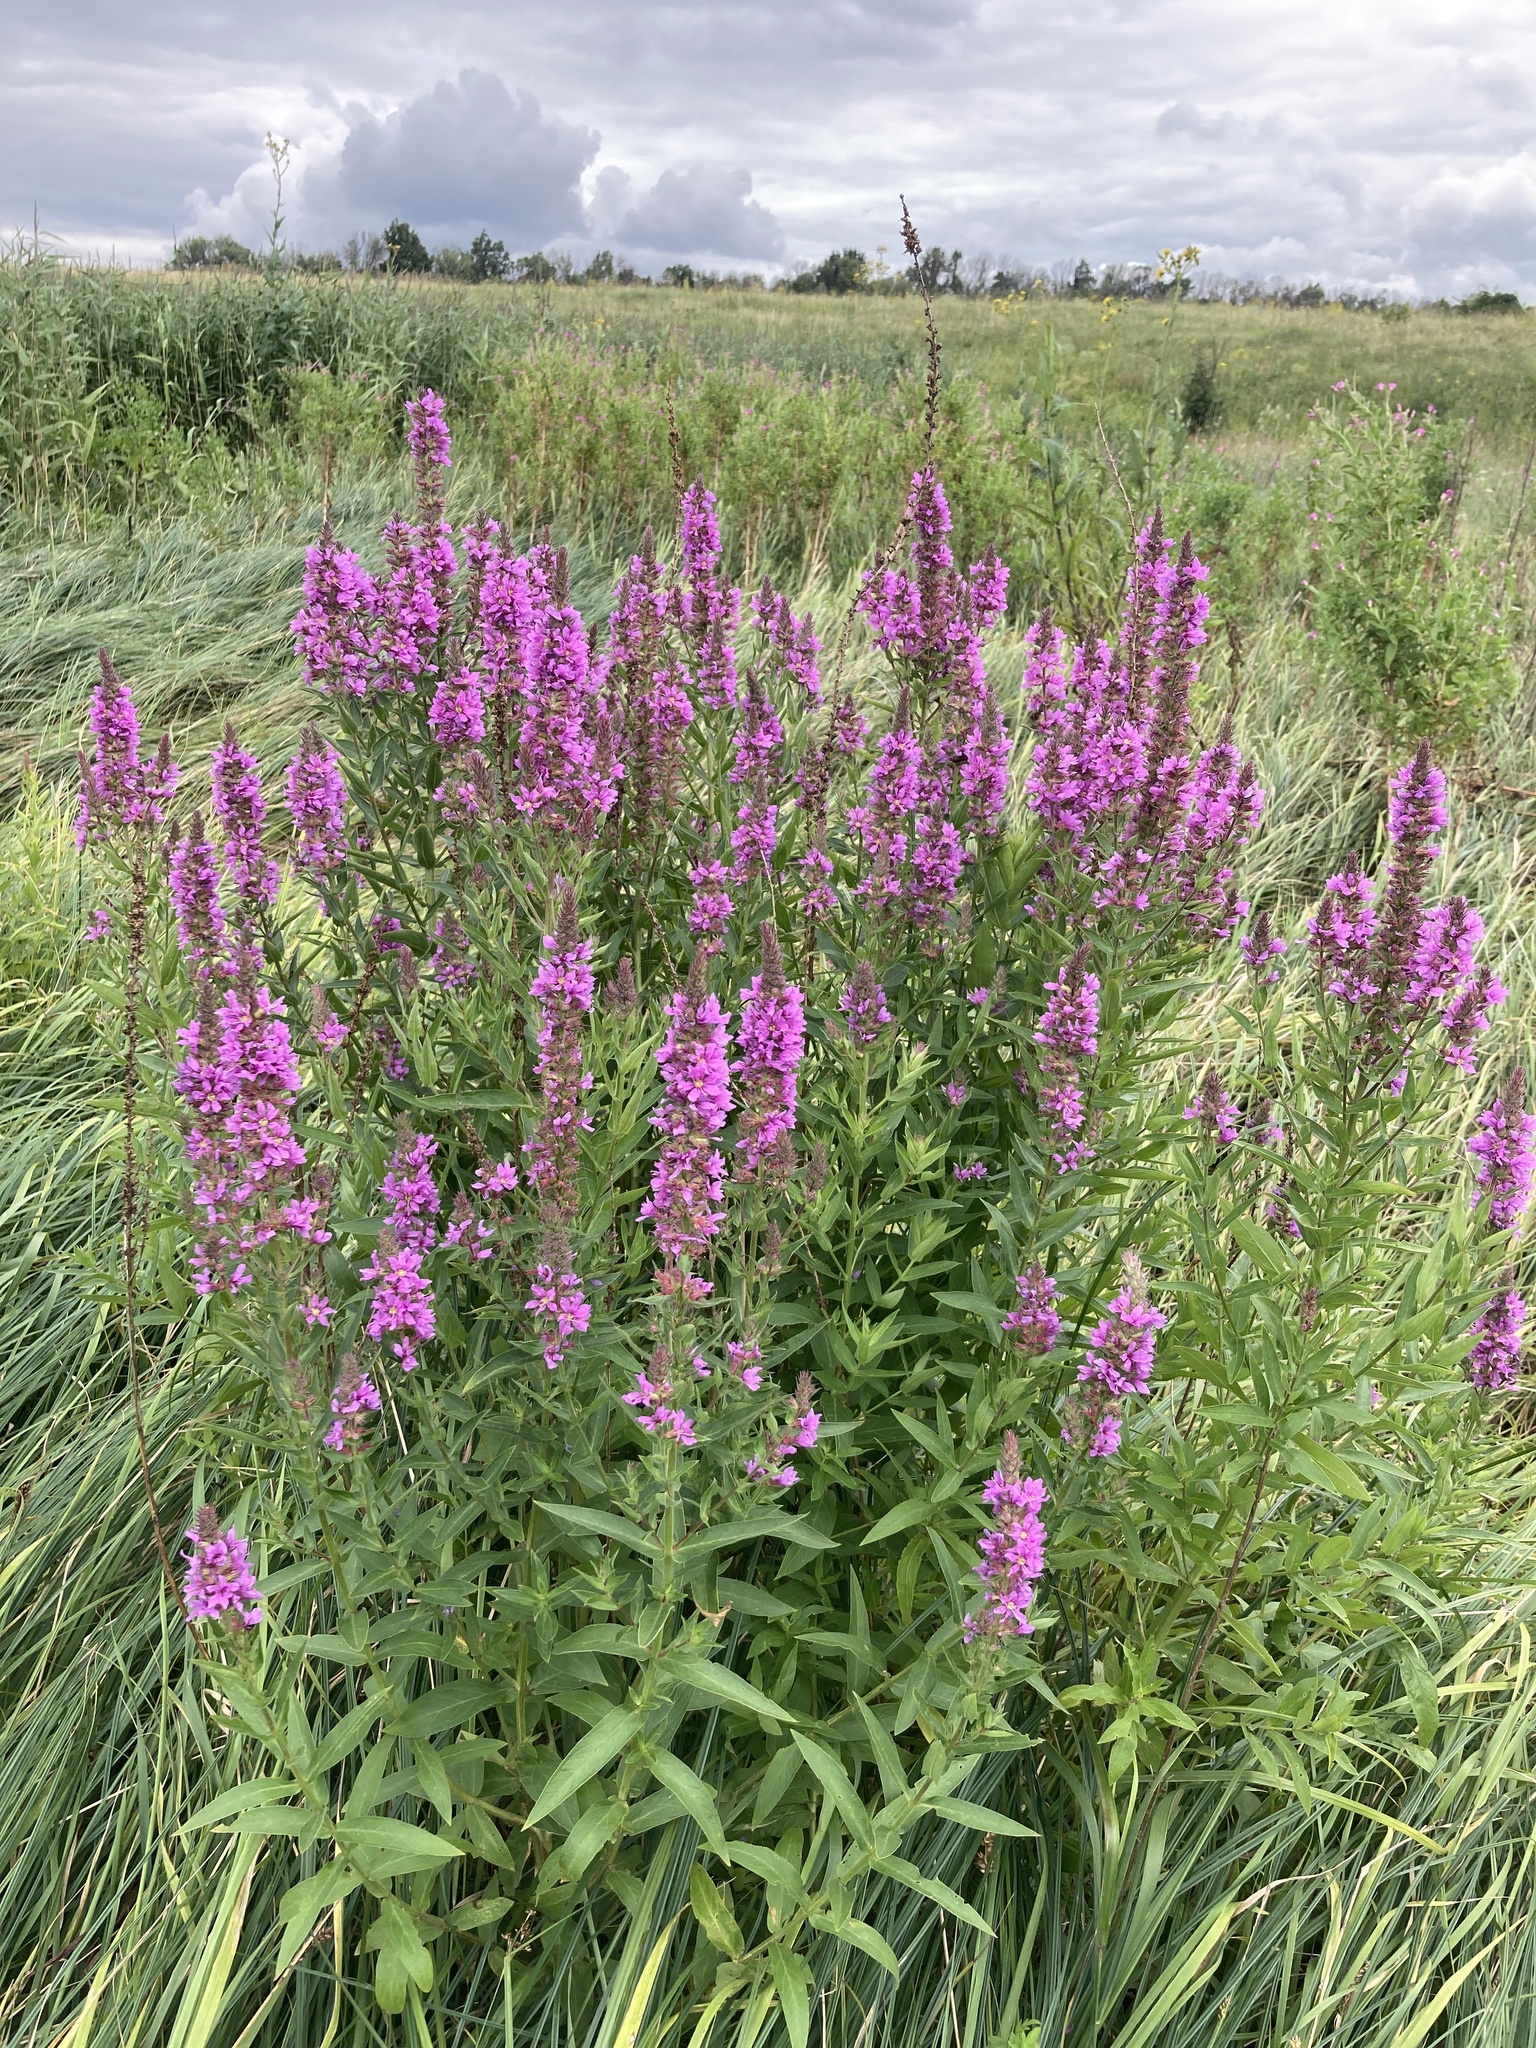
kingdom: Plantae
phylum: Tracheophyta
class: Magnoliopsida
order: Myrtales
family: Lythraceae
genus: Lythrum
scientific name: Lythrum salicaria
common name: Purple loosestrife
